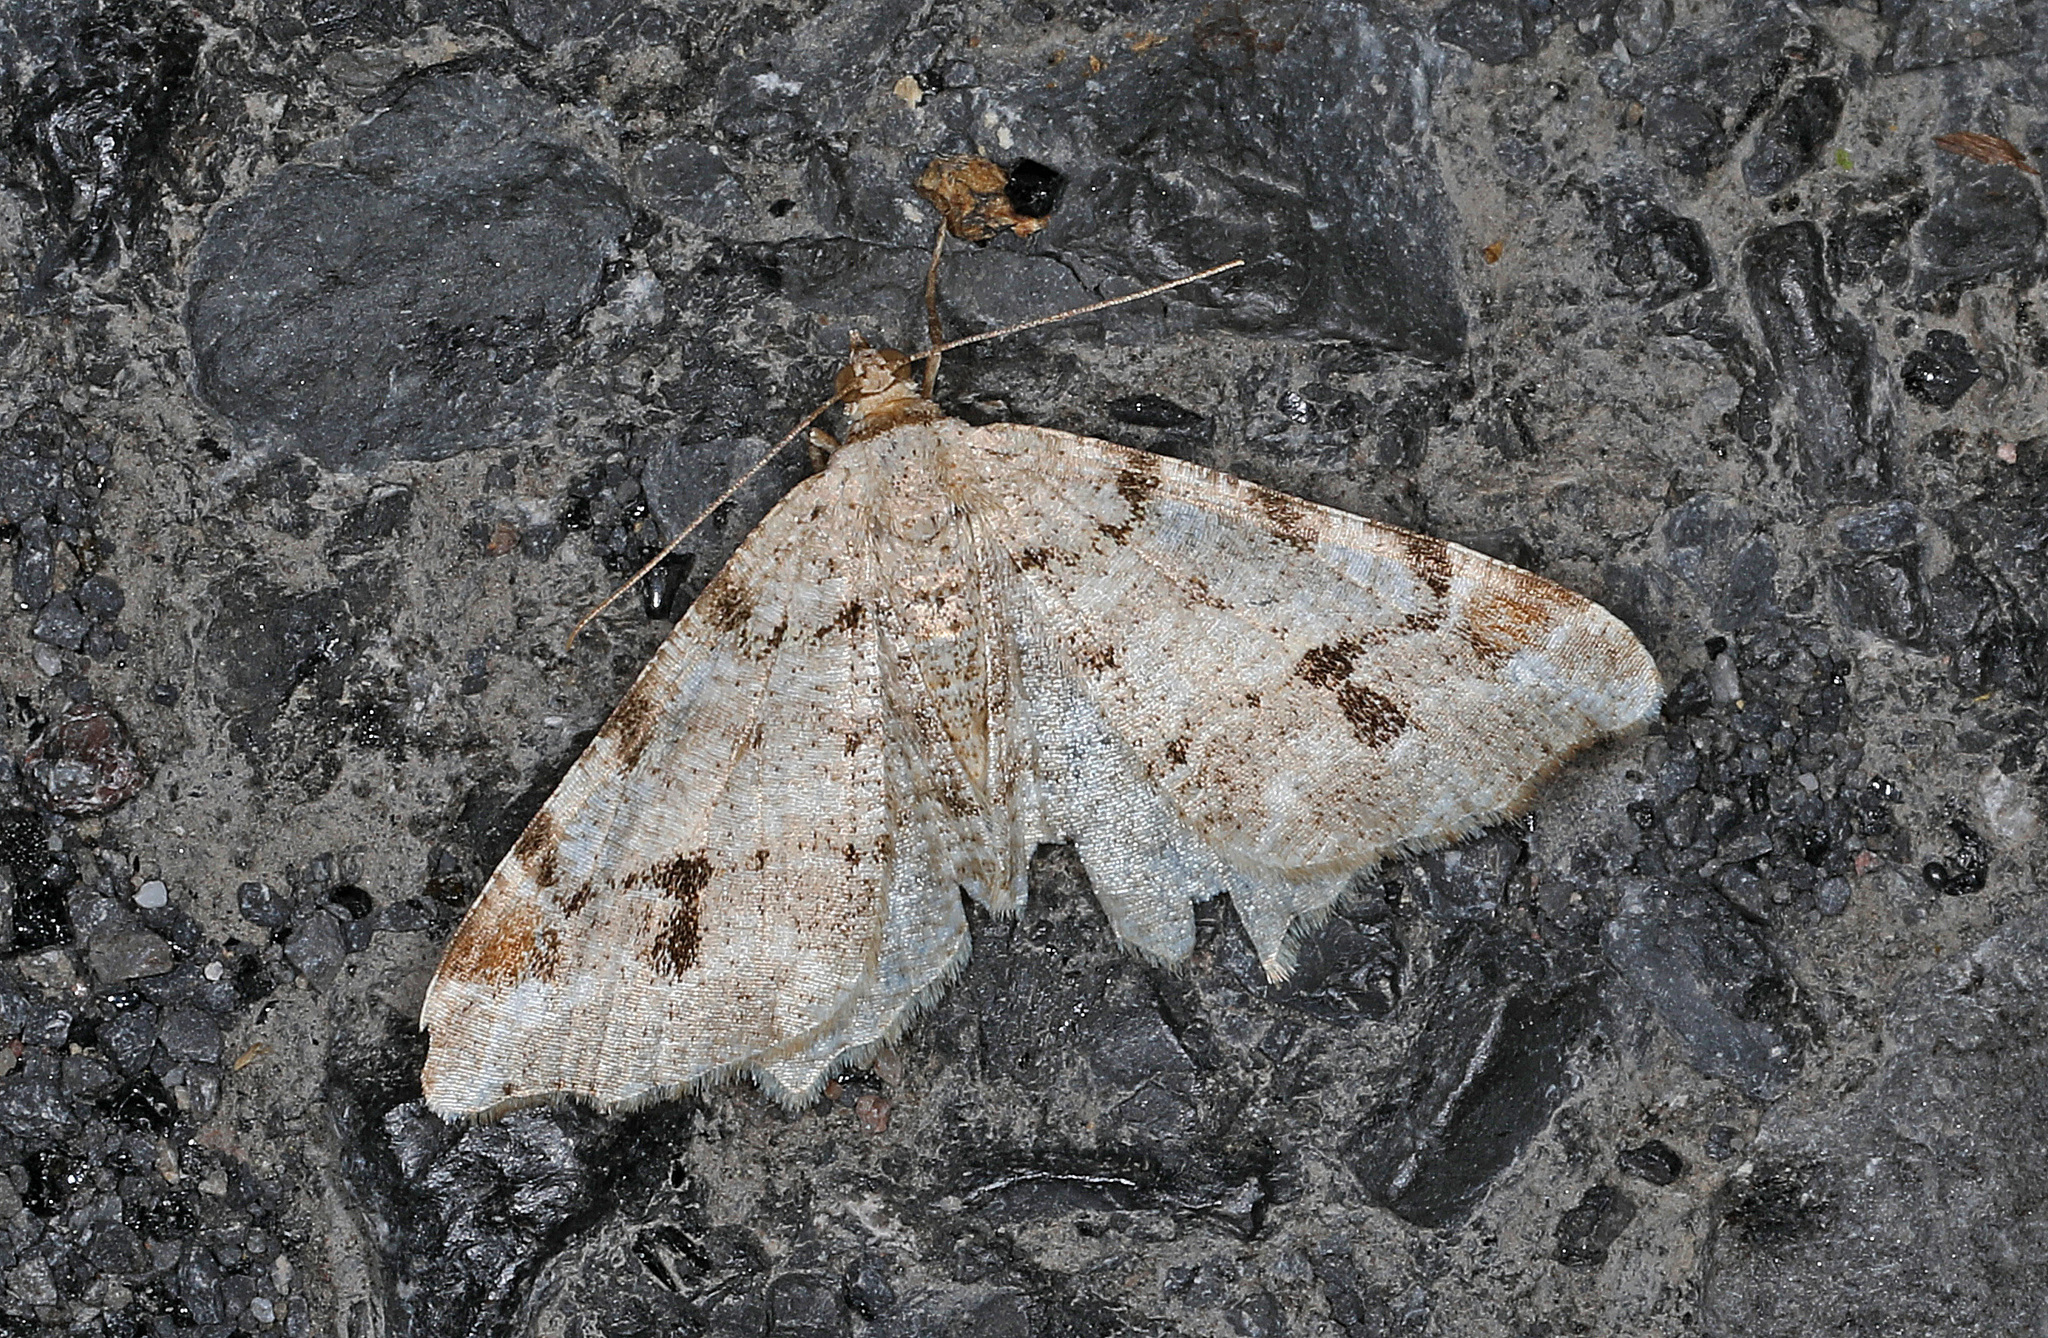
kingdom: Animalia
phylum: Arthropoda
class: Insecta
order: Lepidoptera
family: Geometridae
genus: Macaria
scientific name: Macaria fissinotata
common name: Hemlock angle
